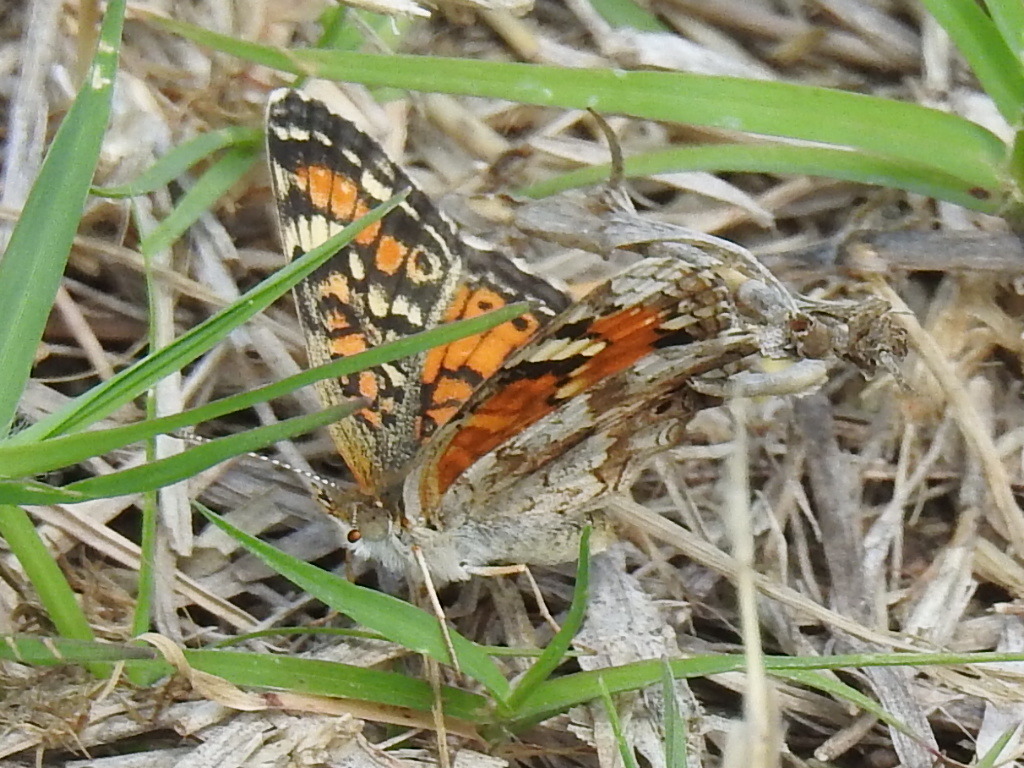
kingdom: Animalia
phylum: Arthropoda
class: Insecta
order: Lepidoptera
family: Nymphalidae
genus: Phyciodes
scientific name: Phyciodes phaon
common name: Phaon crescent
